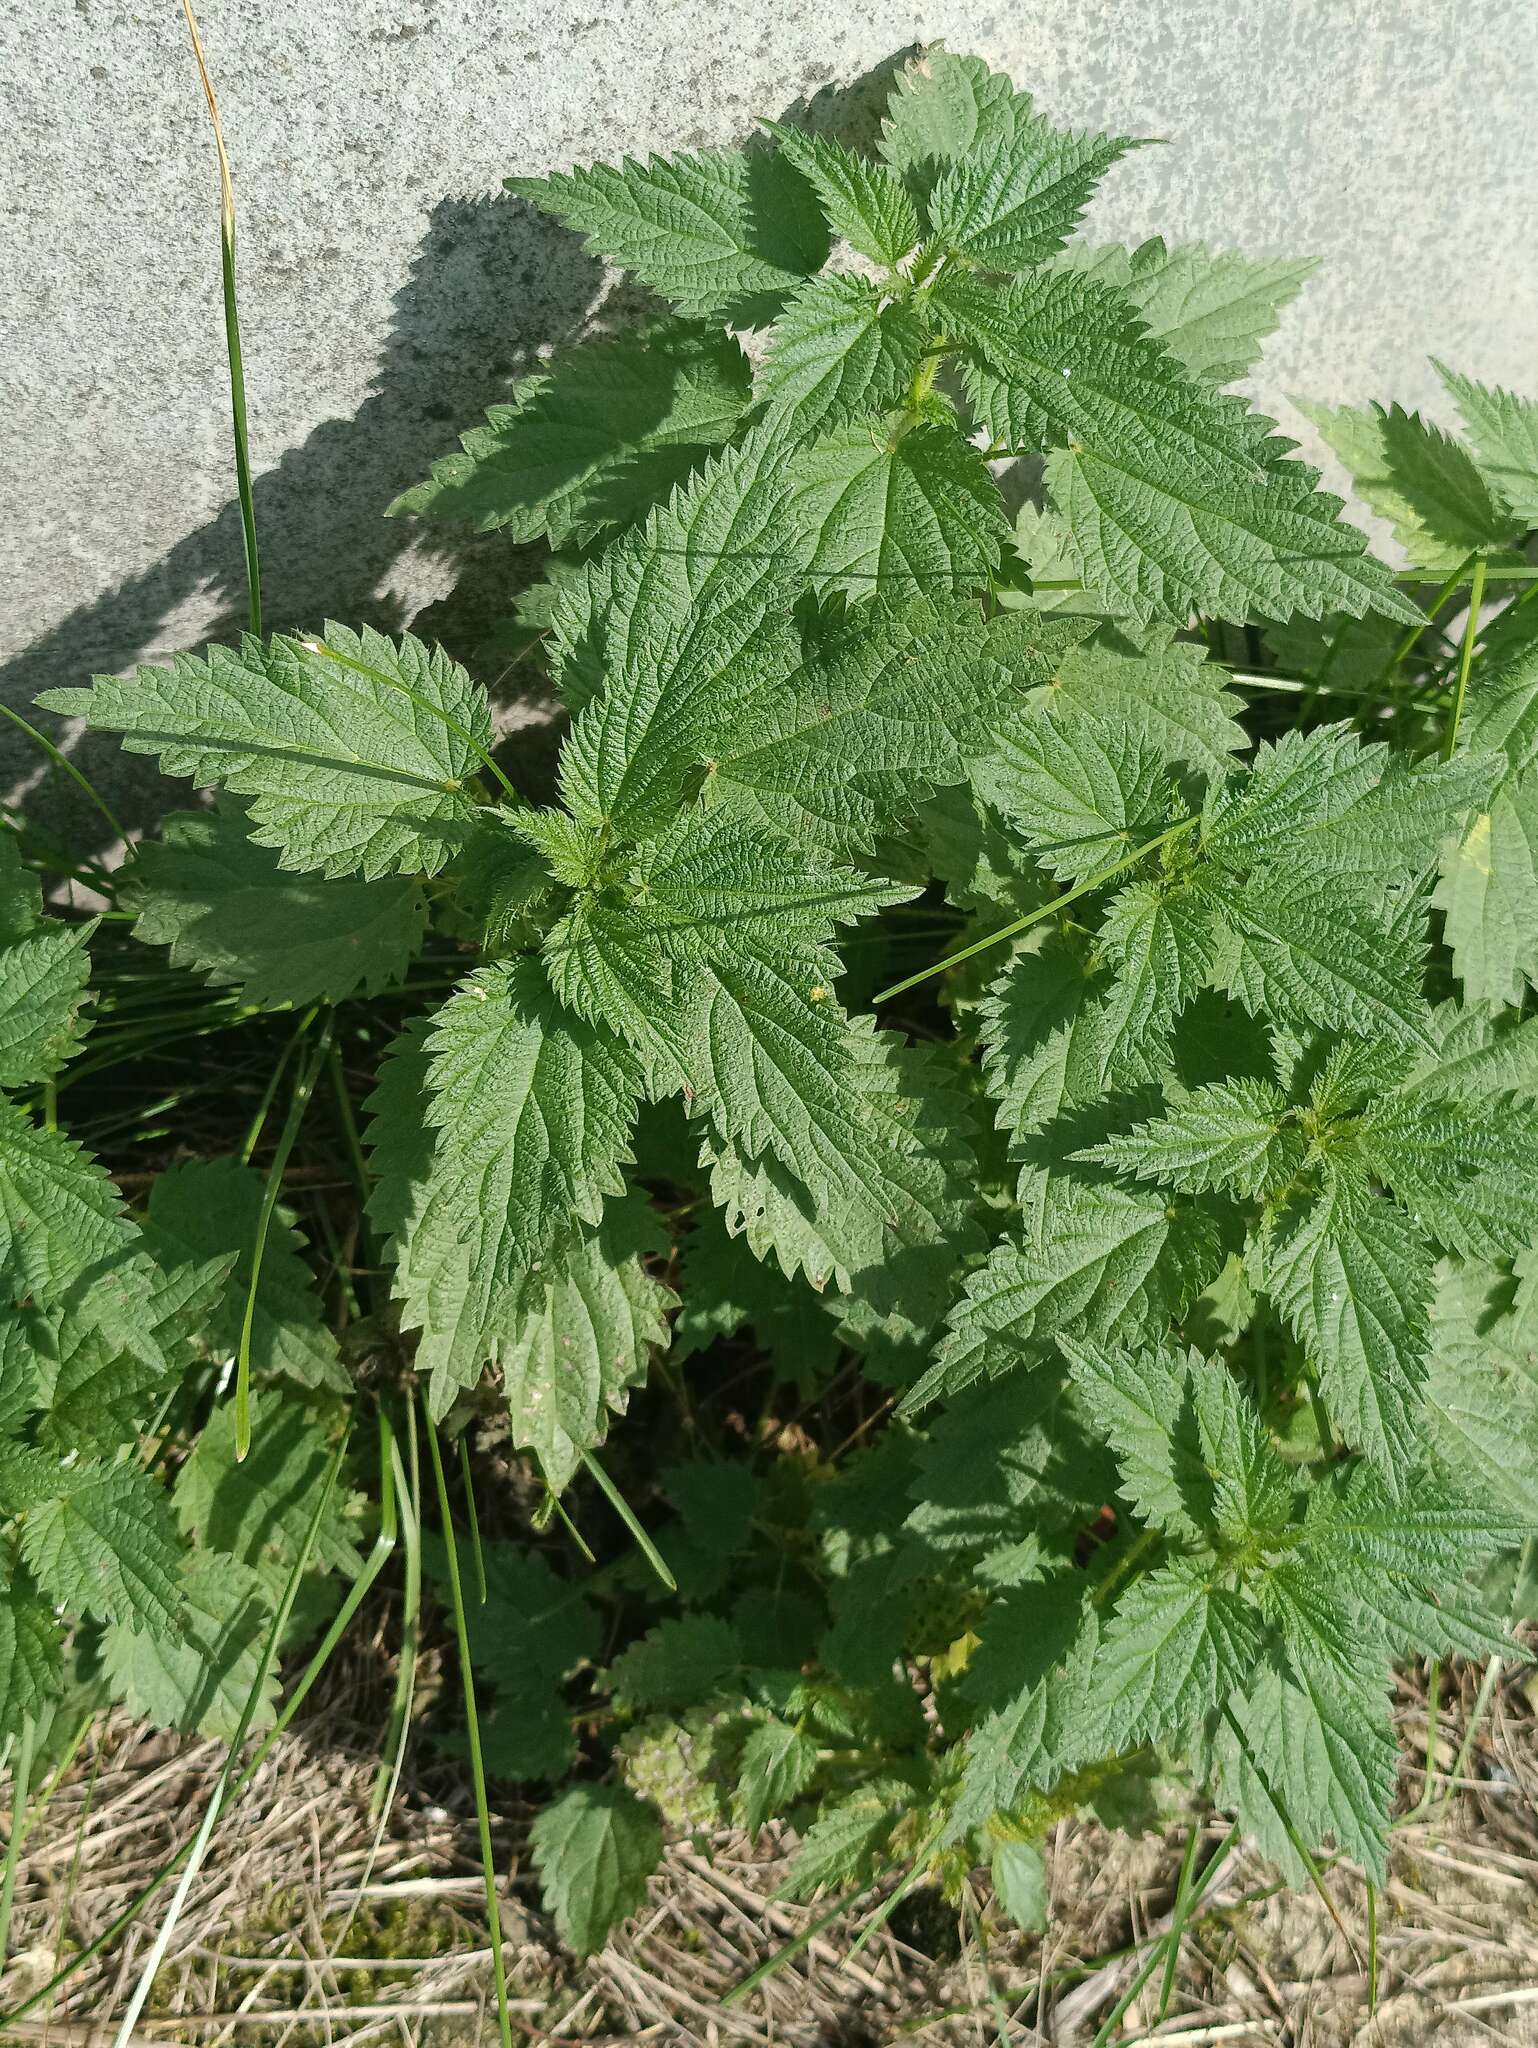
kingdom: Plantae
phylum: Tracheophyta
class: Magnoliopsida
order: Rosales
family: Urticaceae
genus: Urtica
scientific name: Urtica dioica
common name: Common nettle
